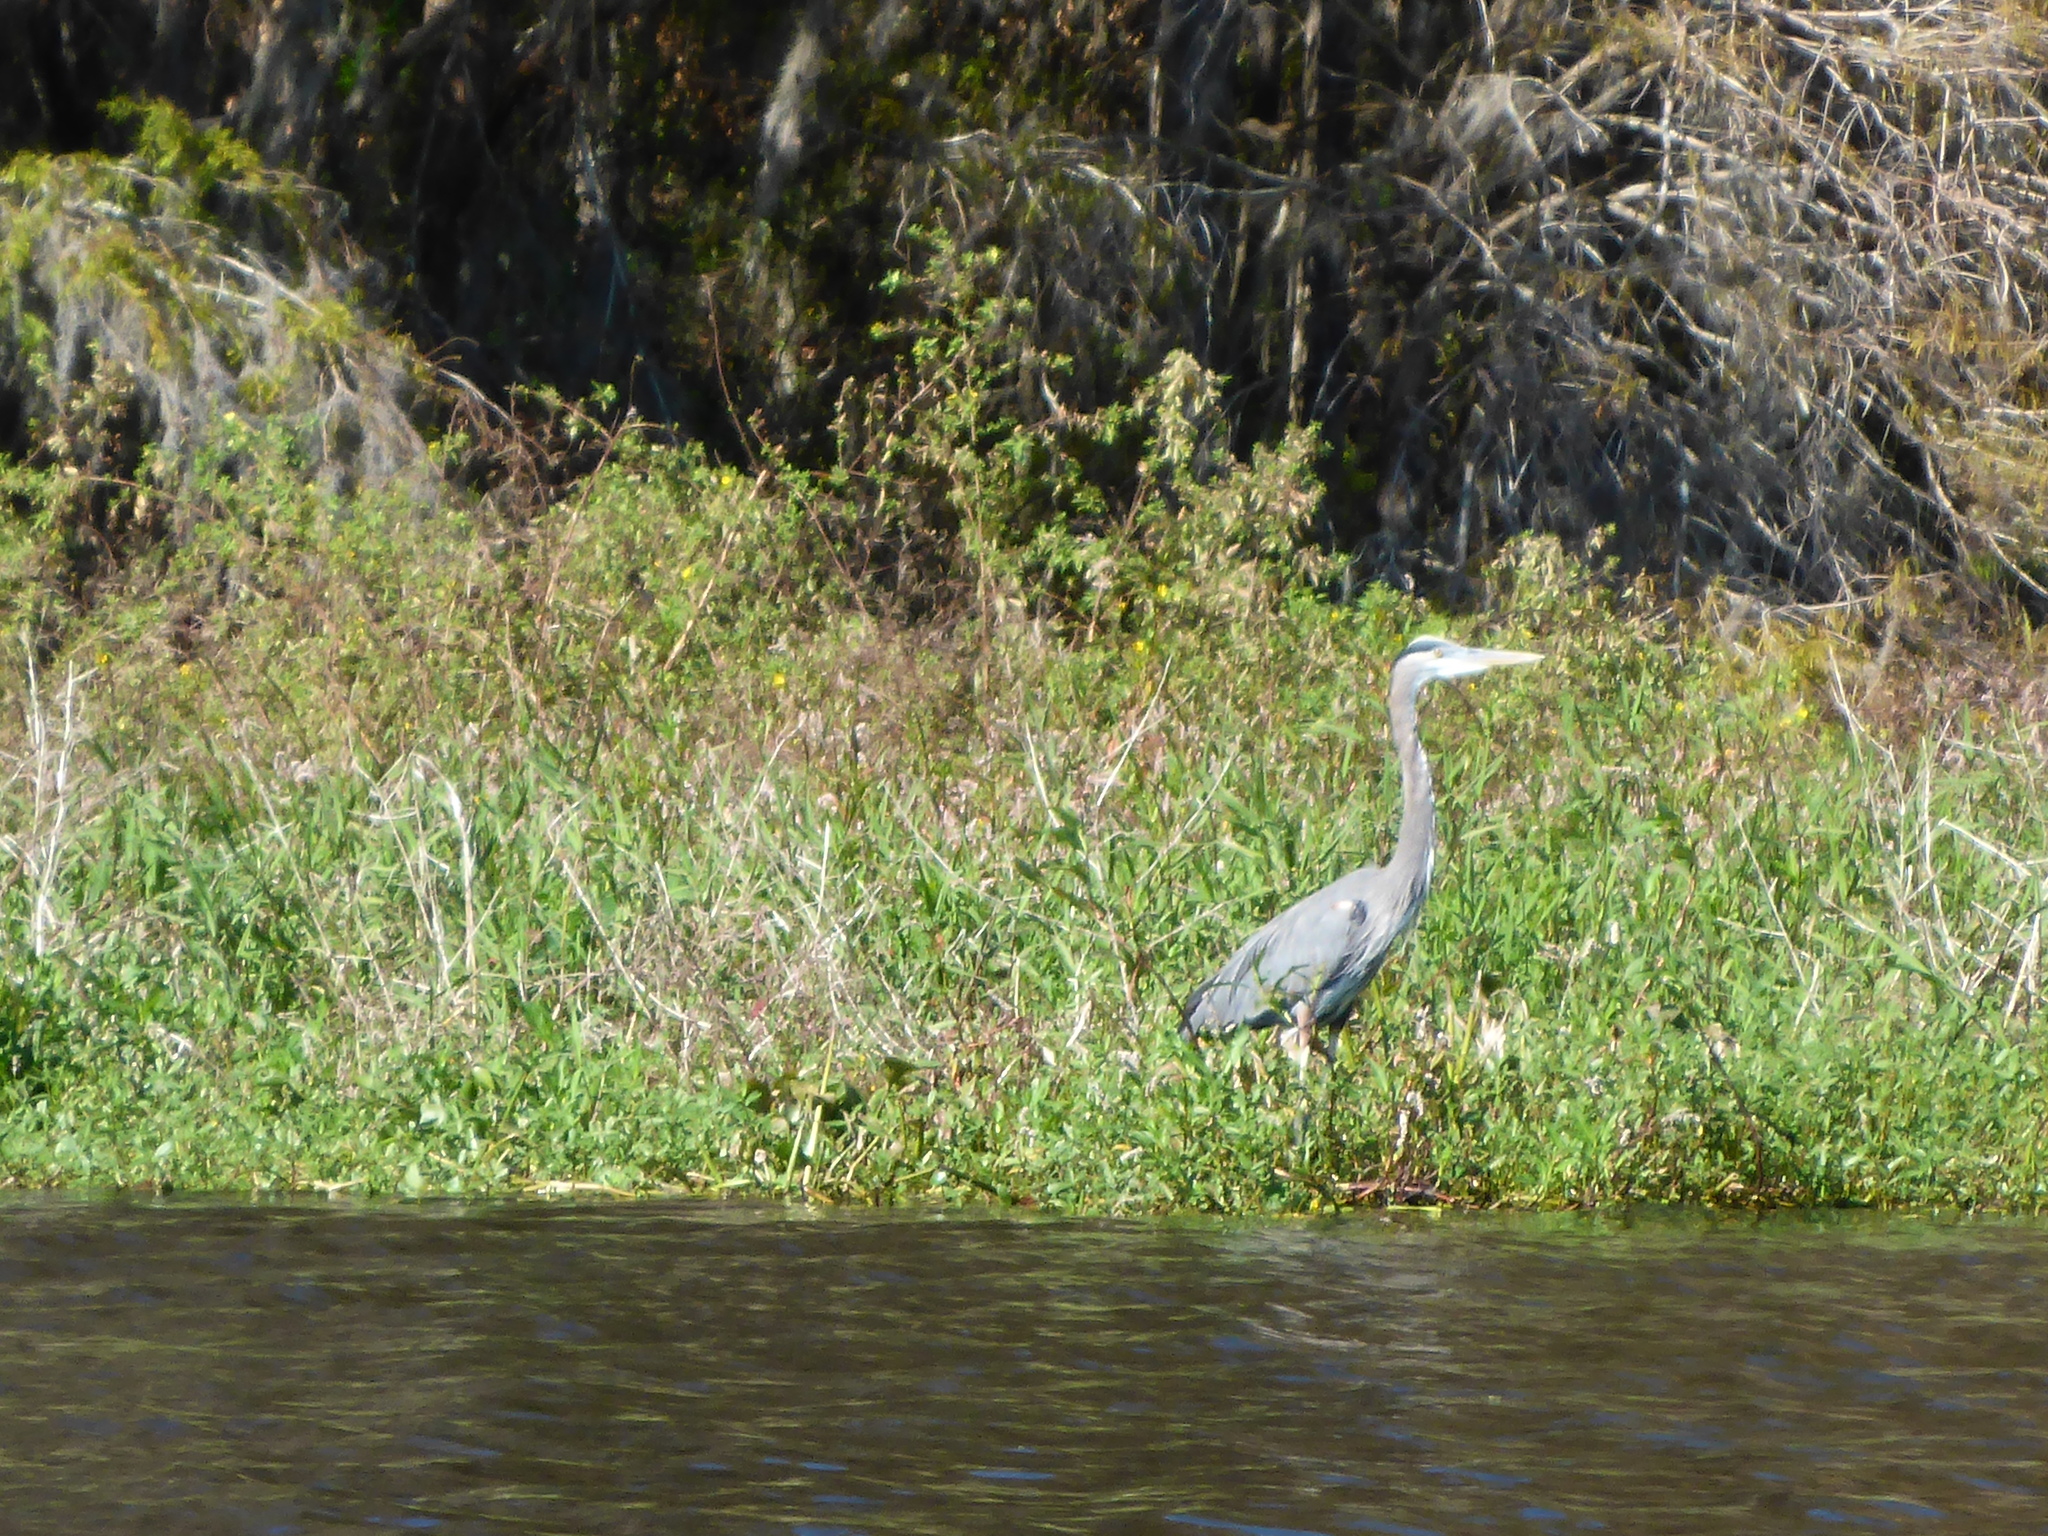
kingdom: Animalia
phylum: Chordata
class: Aves
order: Pelecaniformes
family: Ardeidae
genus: Ardea
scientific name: Ardea herodias
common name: Great blue heron
